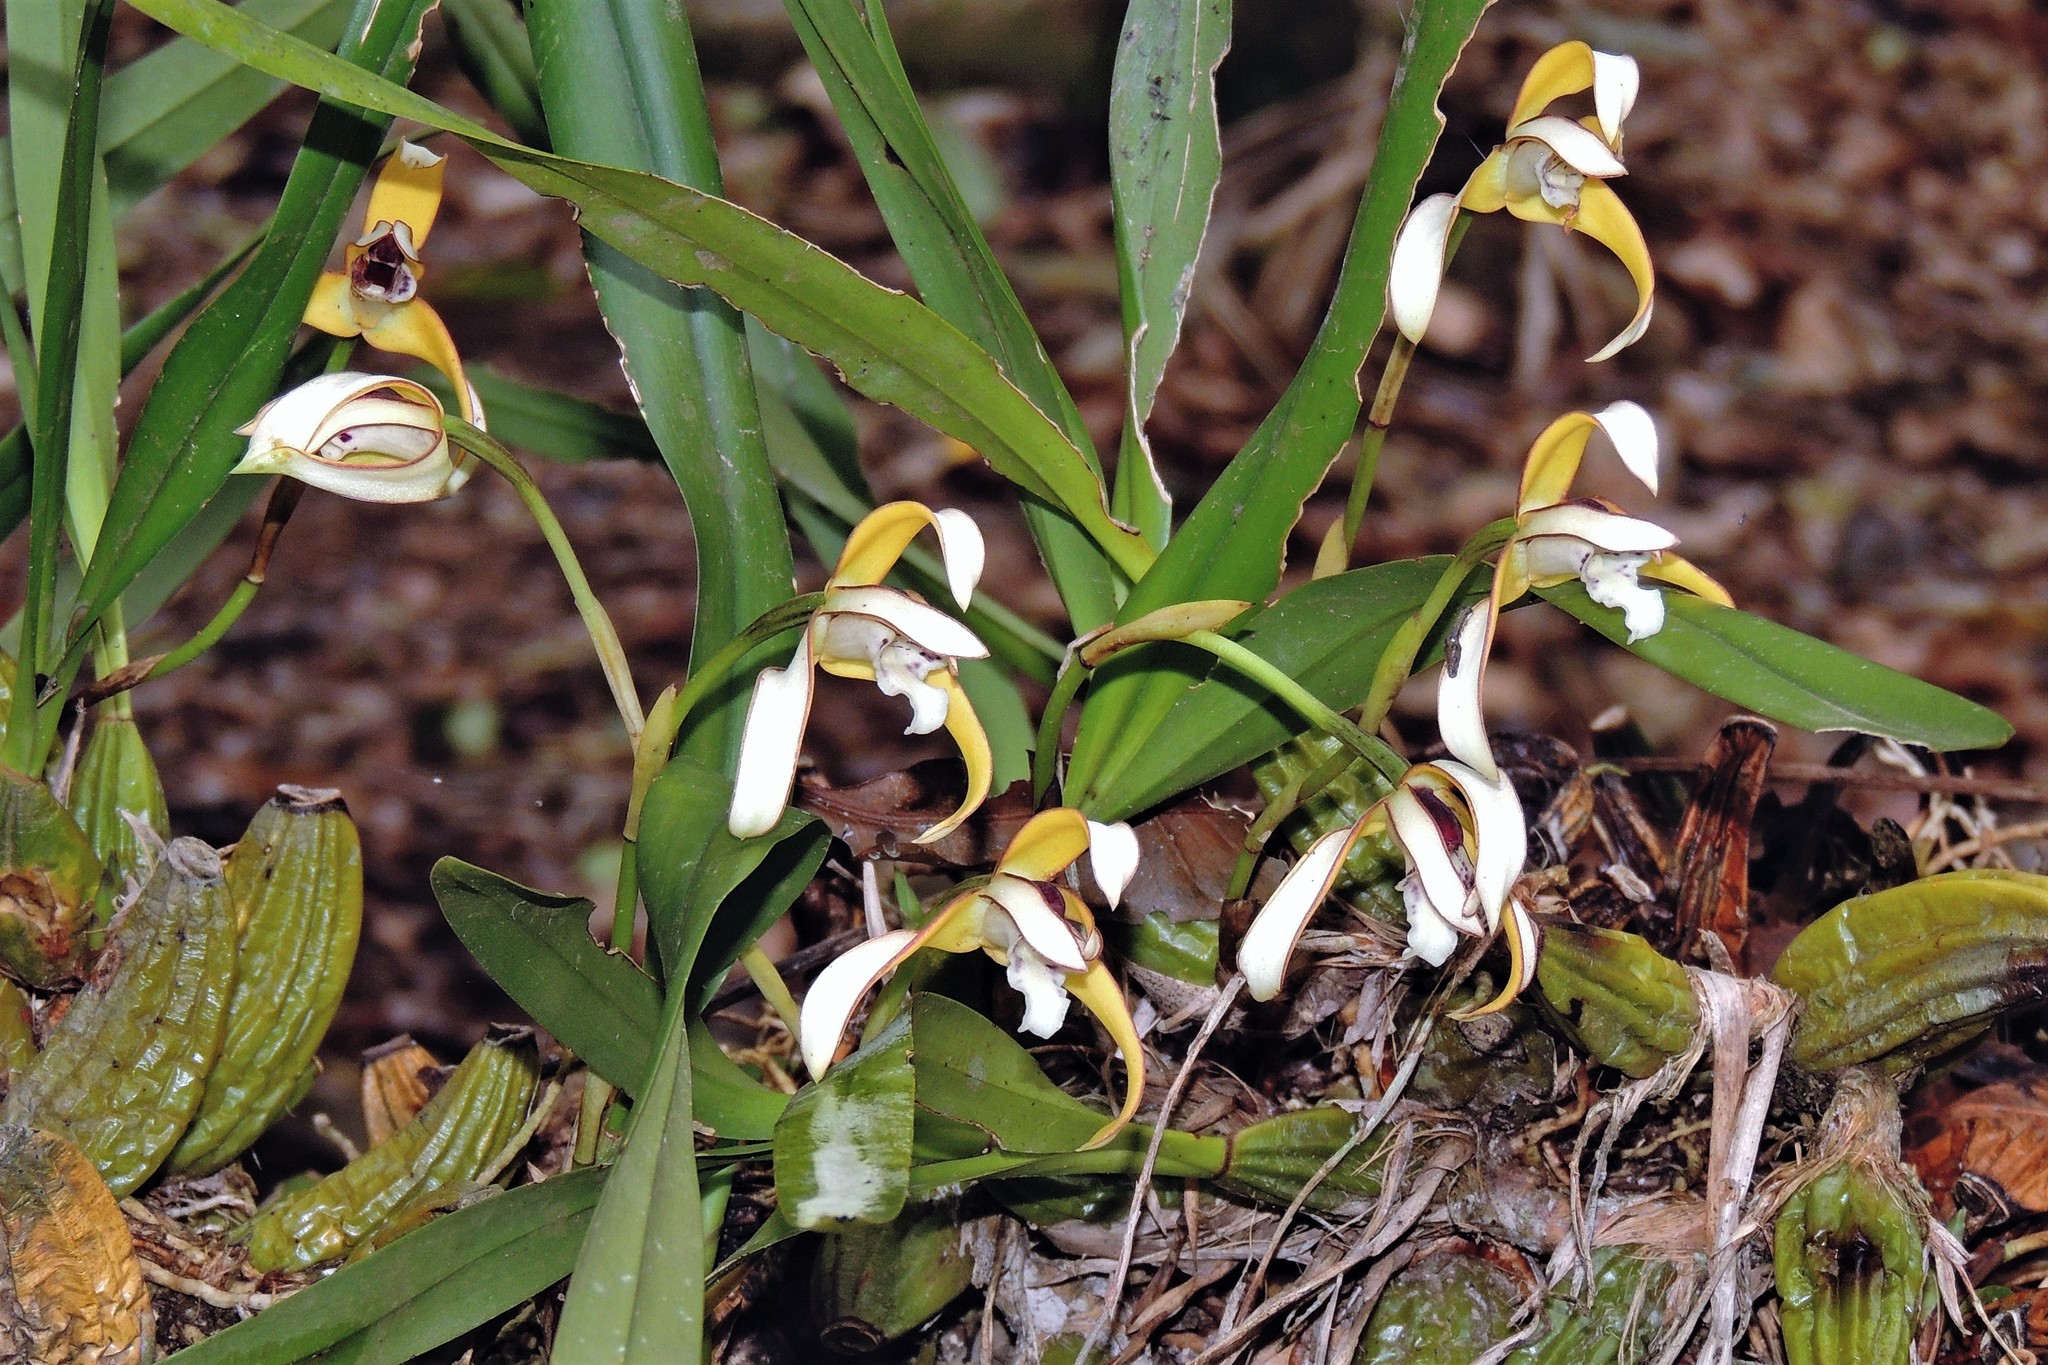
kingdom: Plantae
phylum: Tracheophyta
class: Liliopsida
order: Asparagales
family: Orchidaceae
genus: Maxillaria
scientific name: Maxillaria porphyrostele
